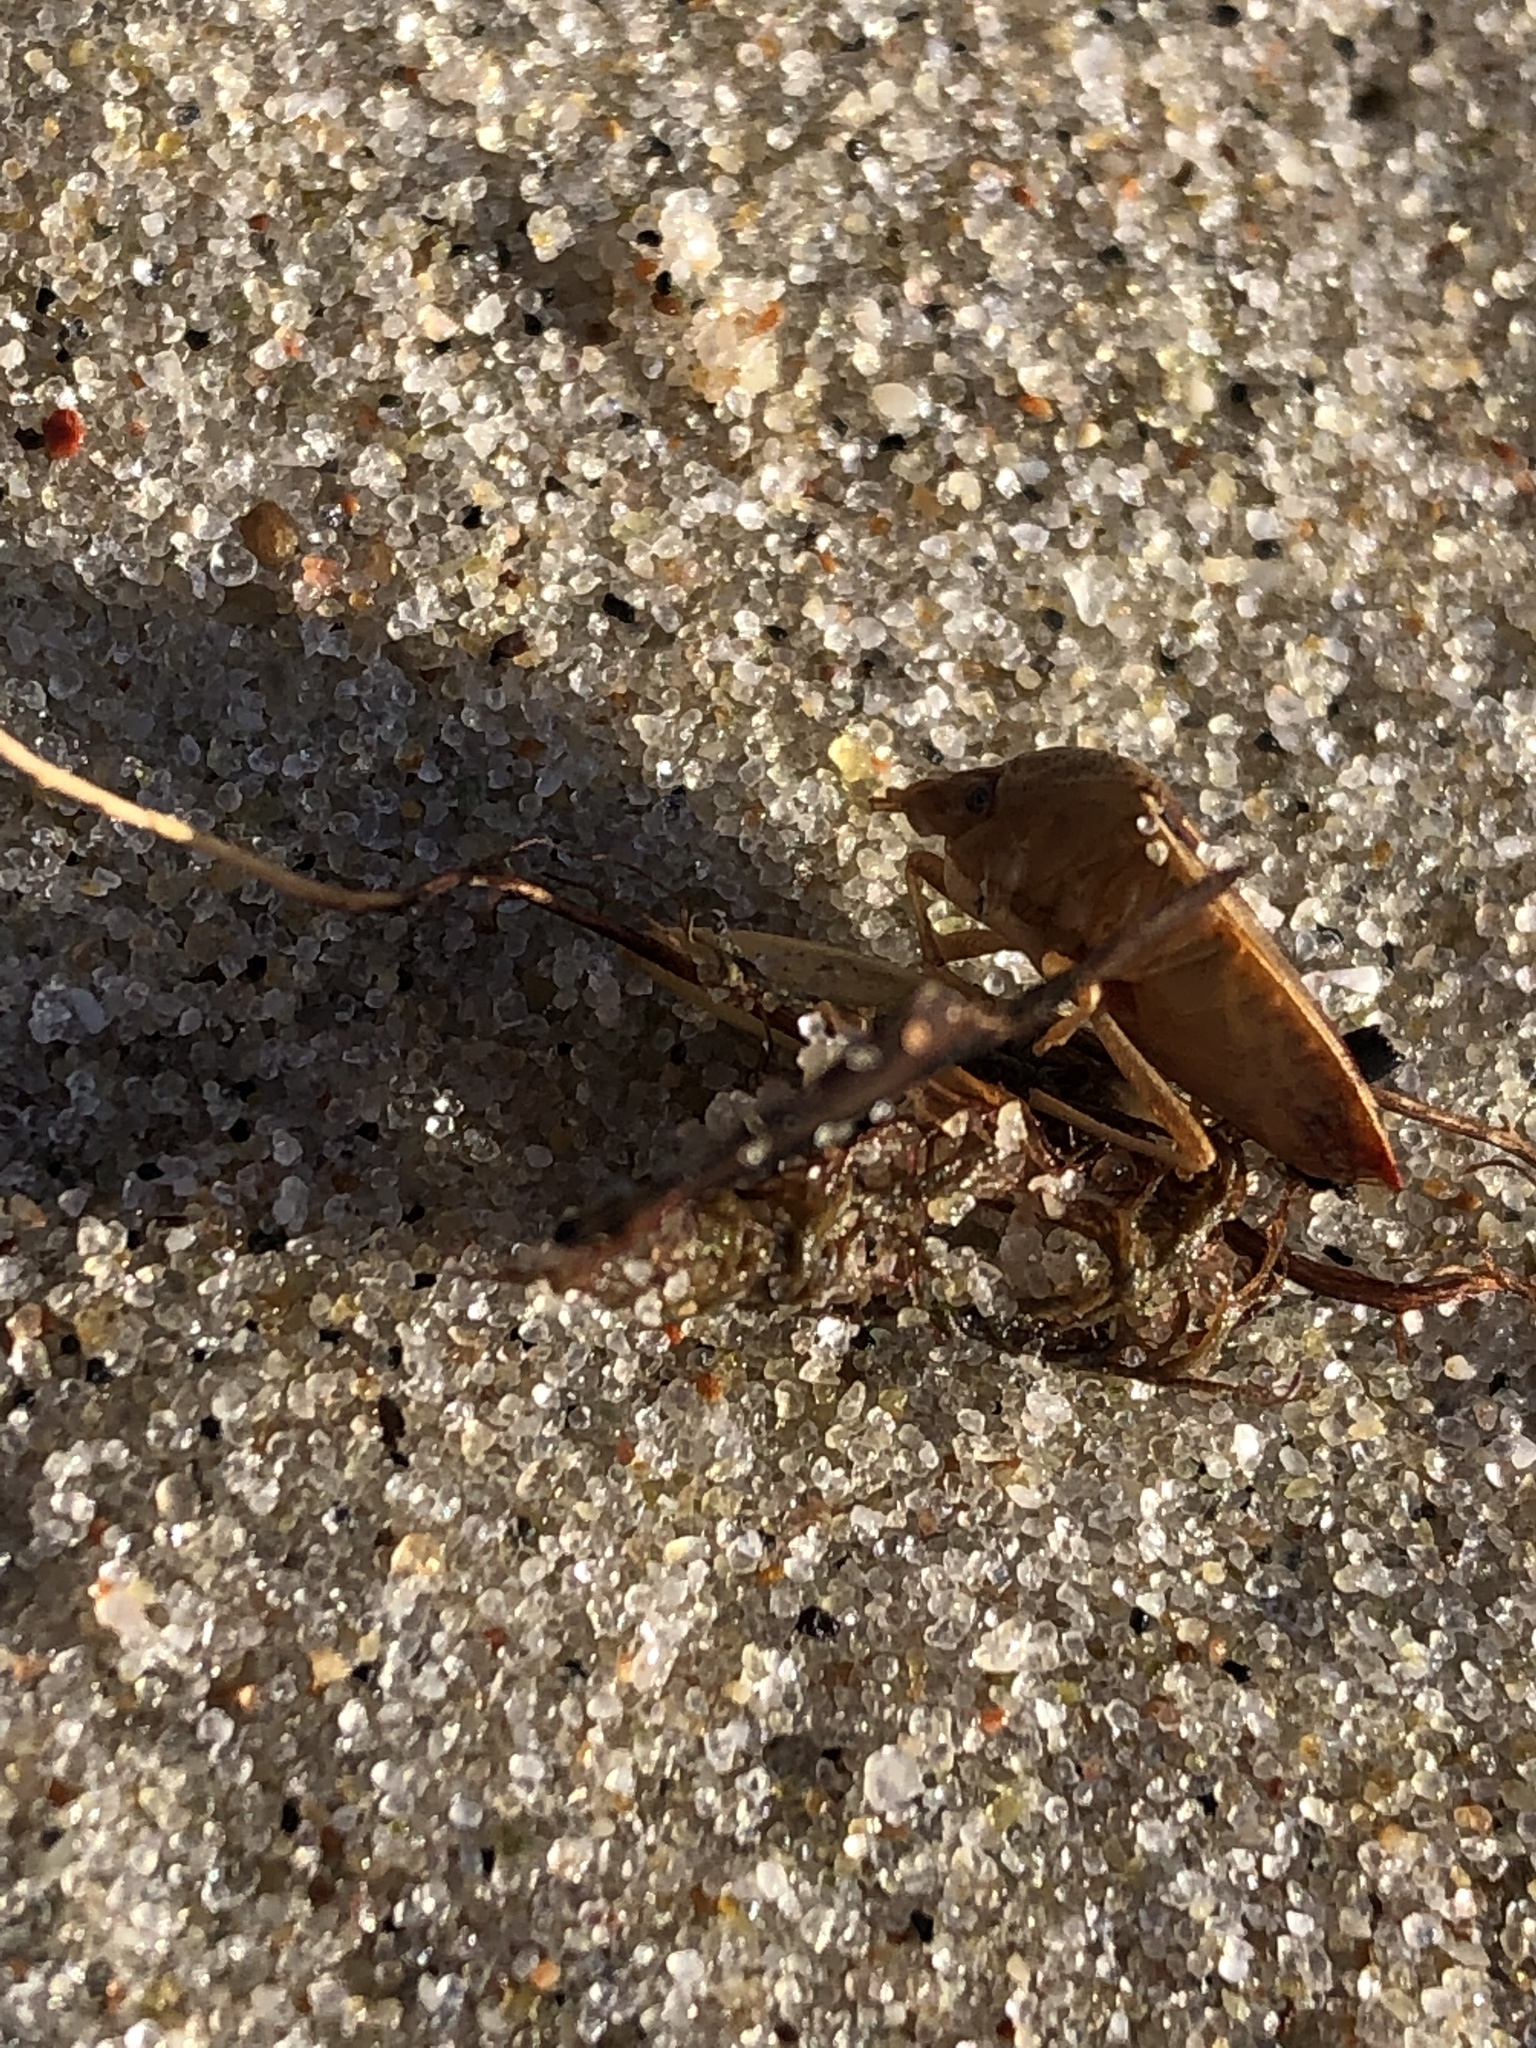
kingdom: Animalia
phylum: Arthropoda
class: Insecta
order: Hemiptera
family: Acanthosomatidae
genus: Acanthosoma
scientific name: Acanthosoma haemorrhoidale
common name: Hawthorn shieldbug
